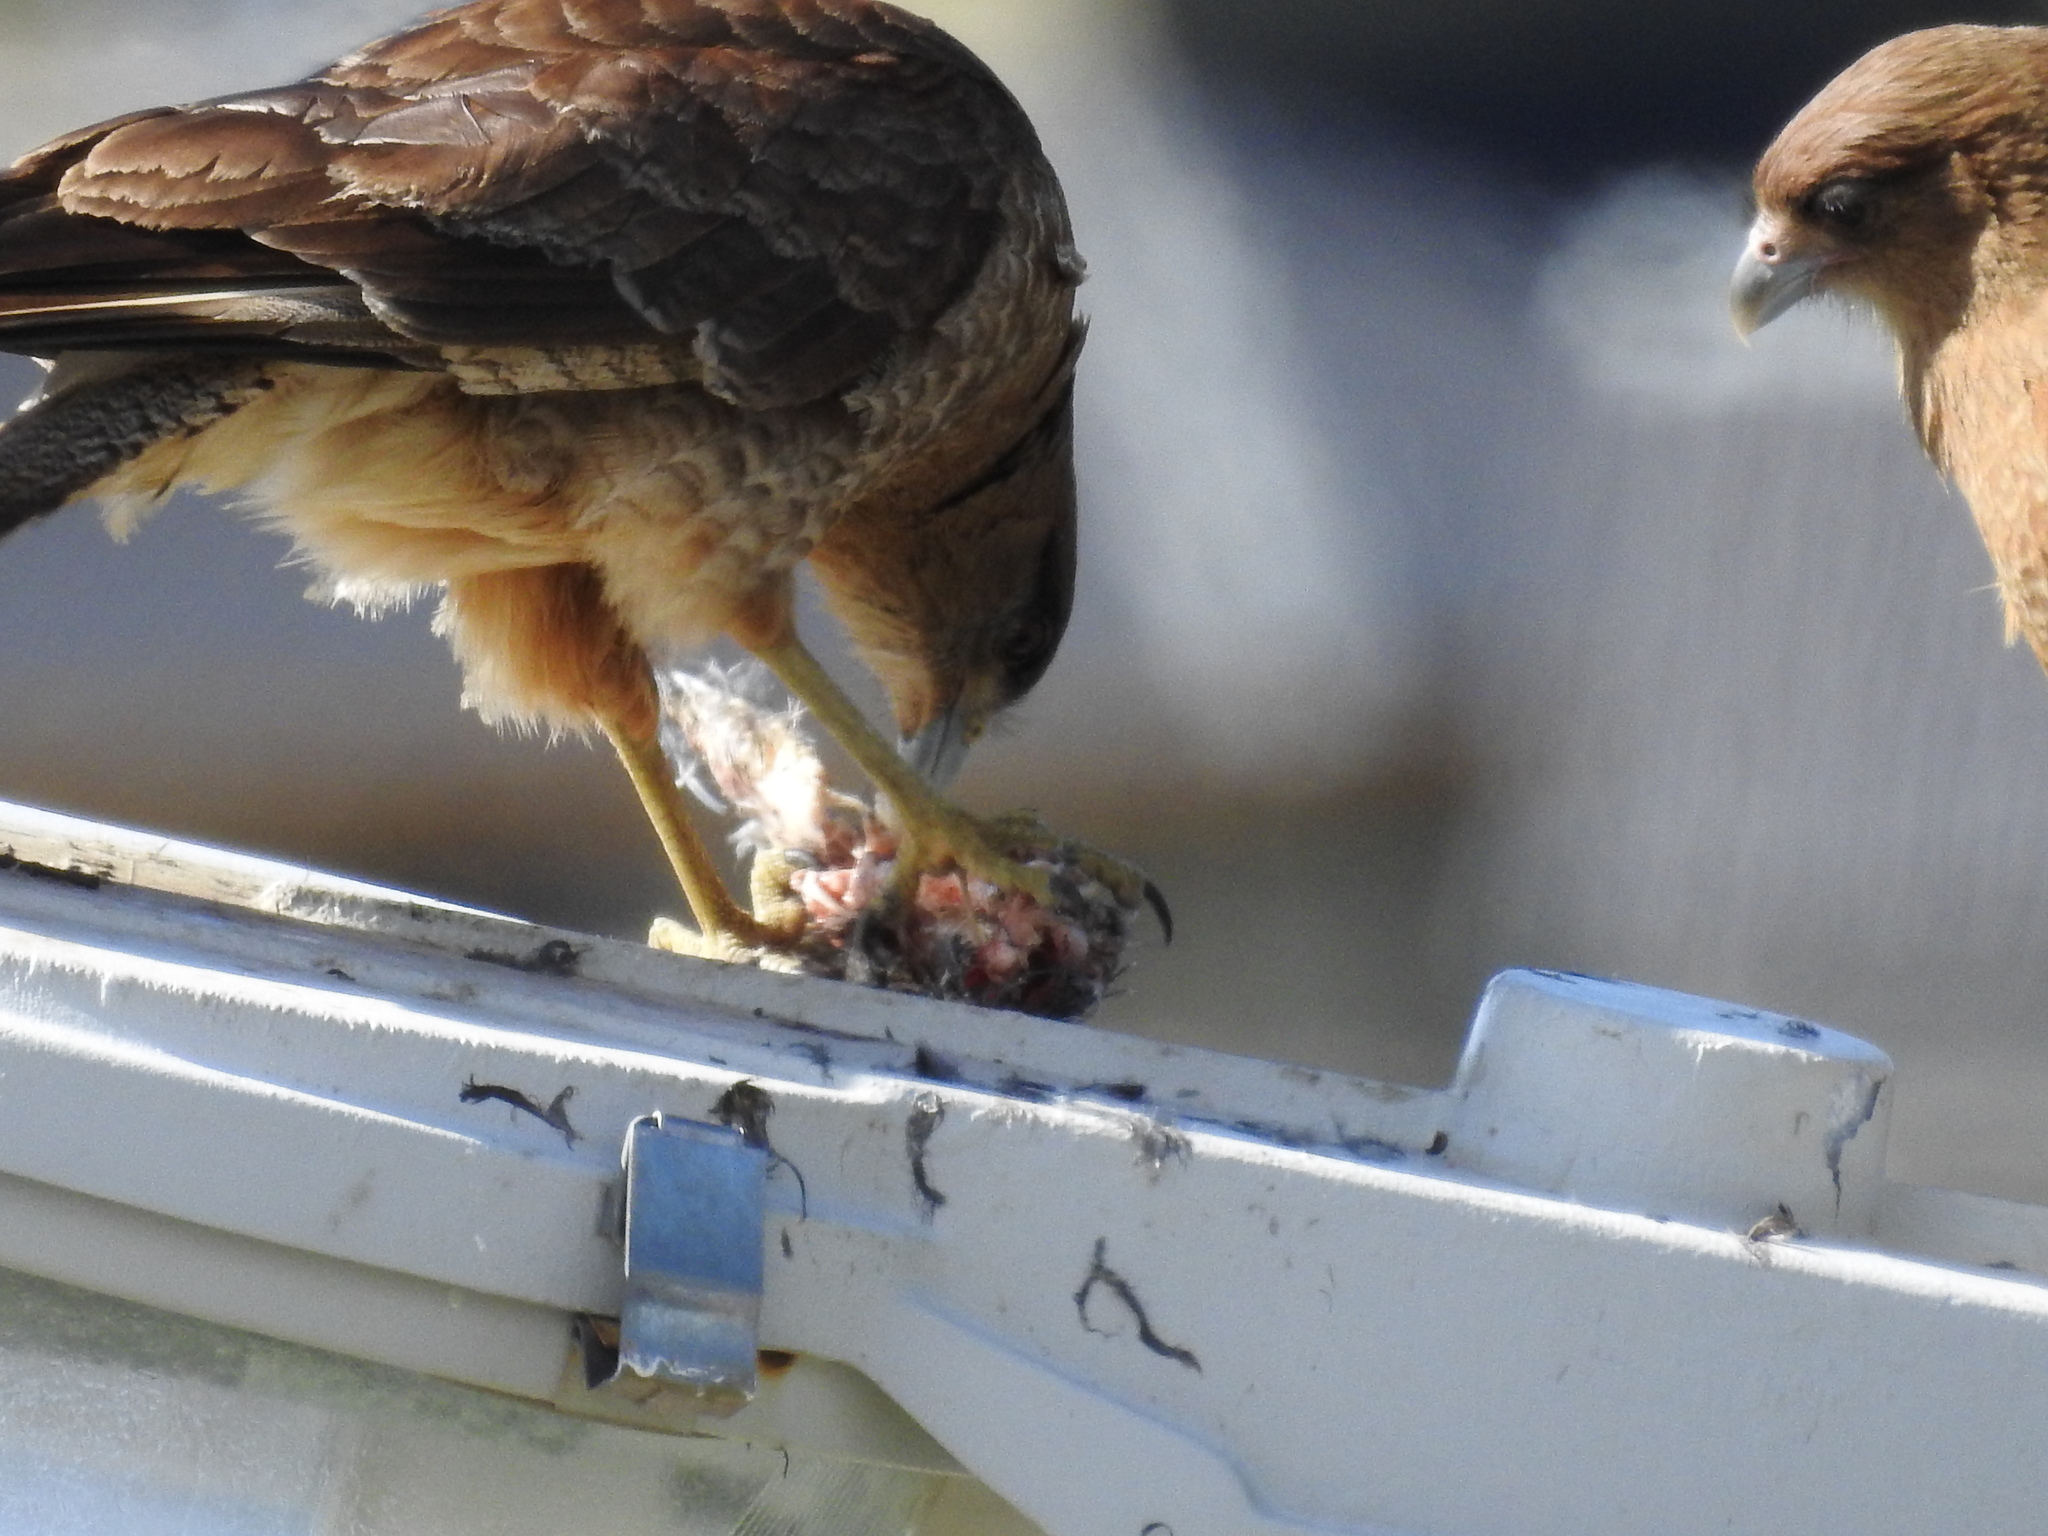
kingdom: Animalia
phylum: Chordata
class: Aves
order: Falconiformes
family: Falconidae
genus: Daptrius
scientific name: Daptrius
